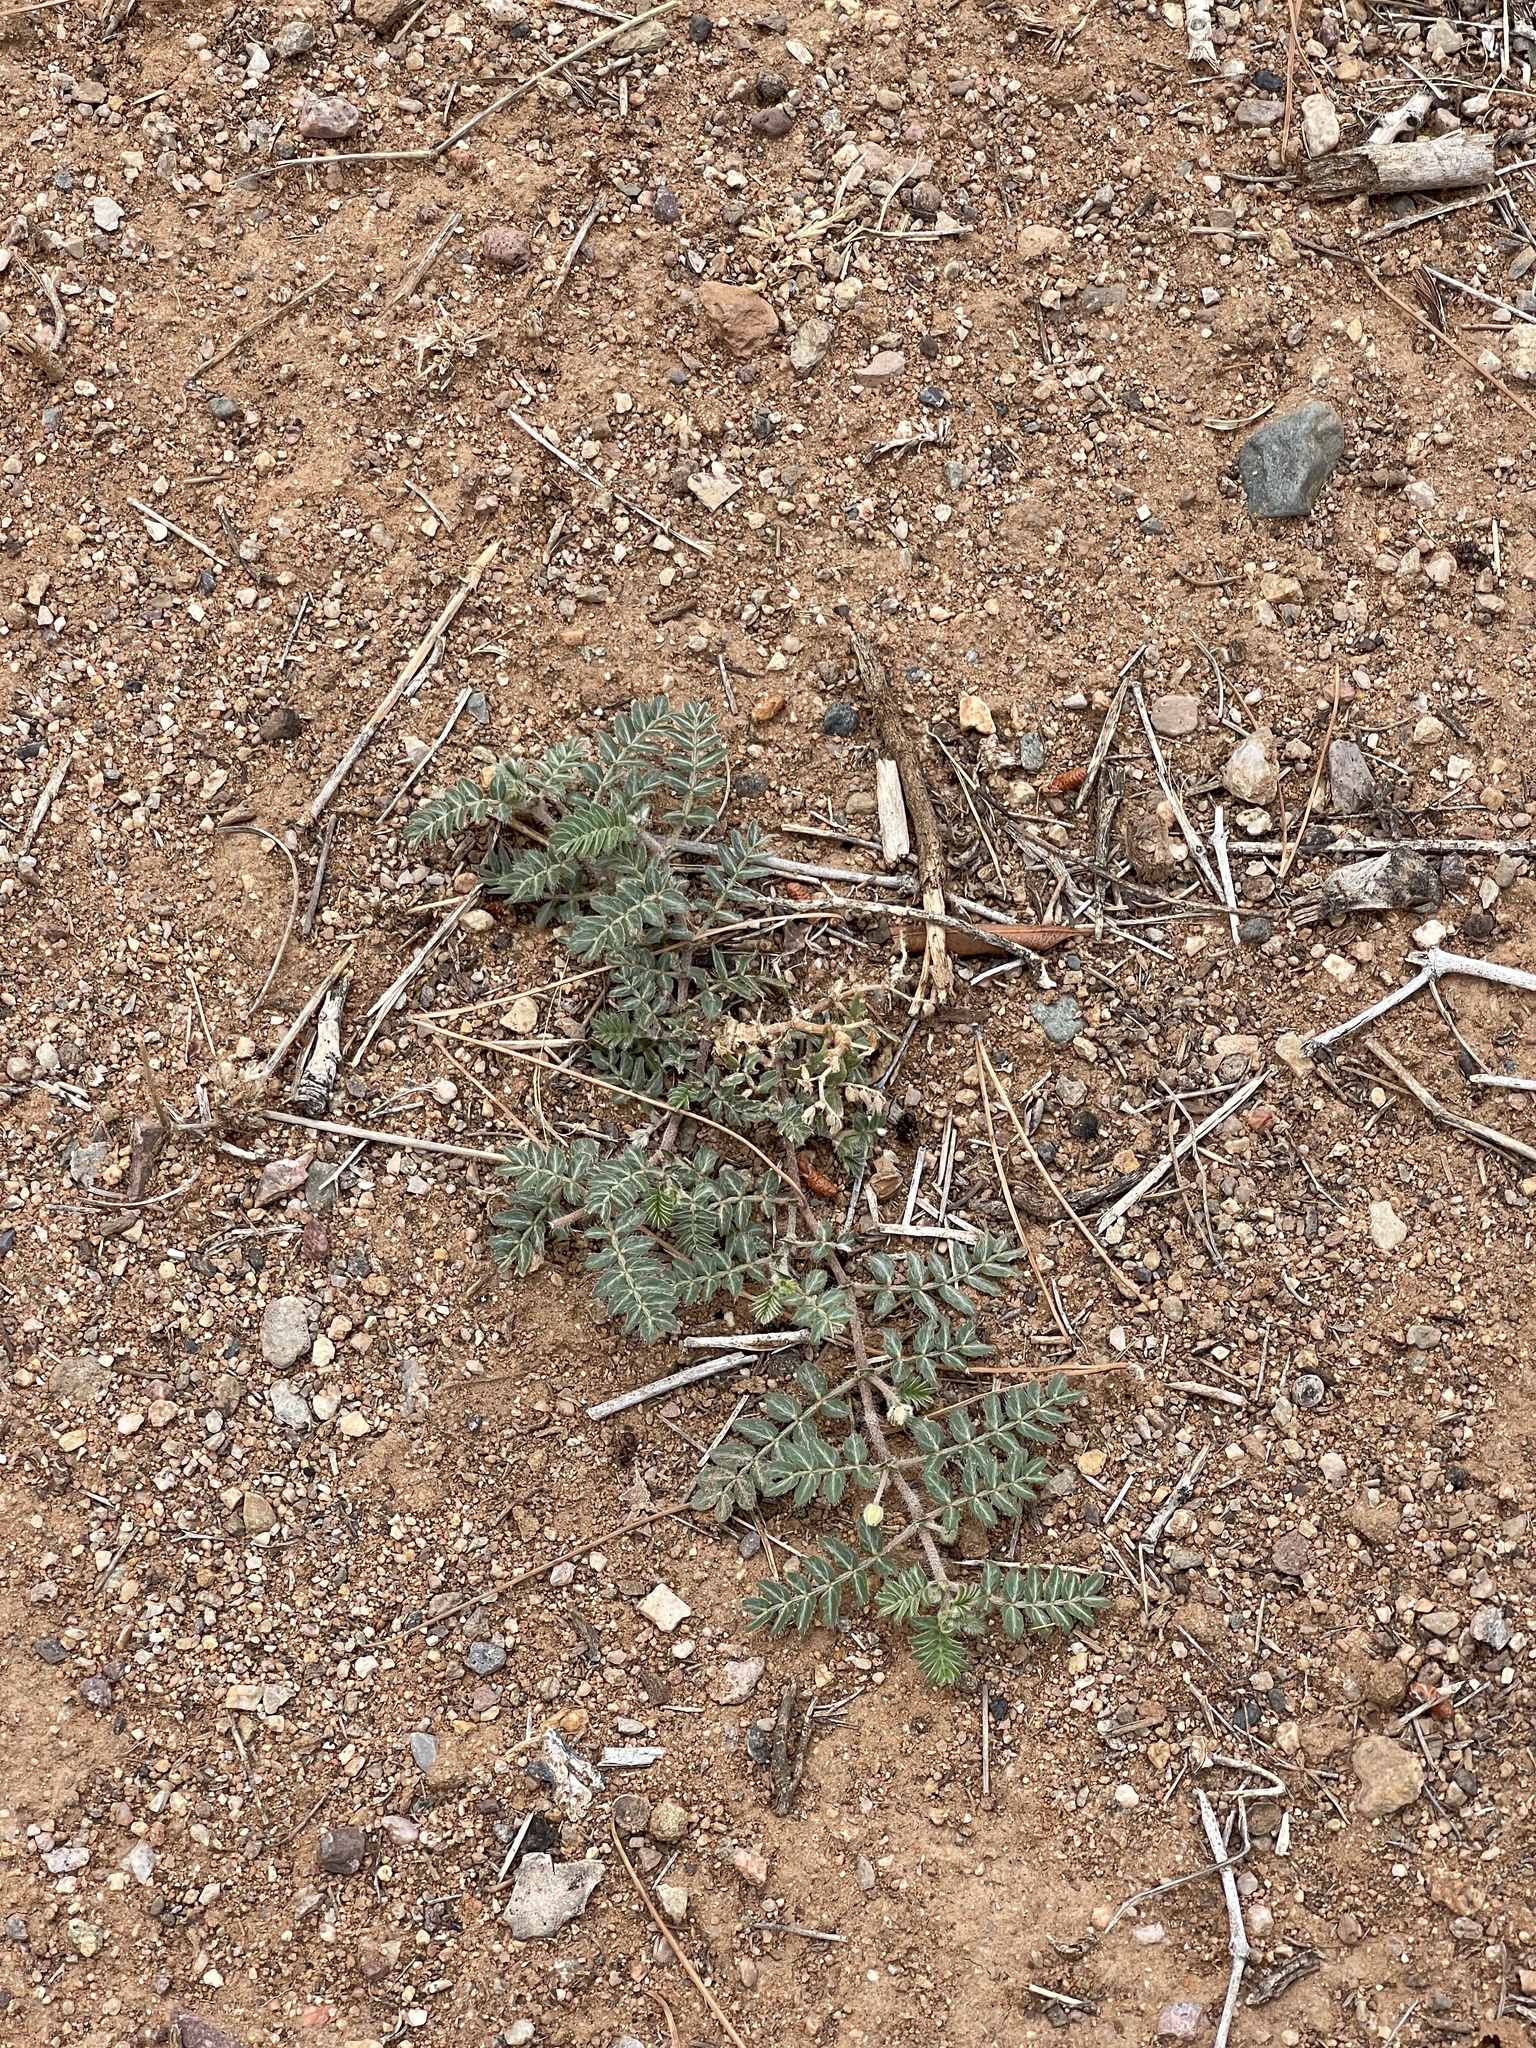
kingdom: Plantae
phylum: Tracheophyta
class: Magnoliopsida
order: Zygophyllales
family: Zygophyllaceae
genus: Tribulus
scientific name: Tribulus terrestris
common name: Puncturevine
